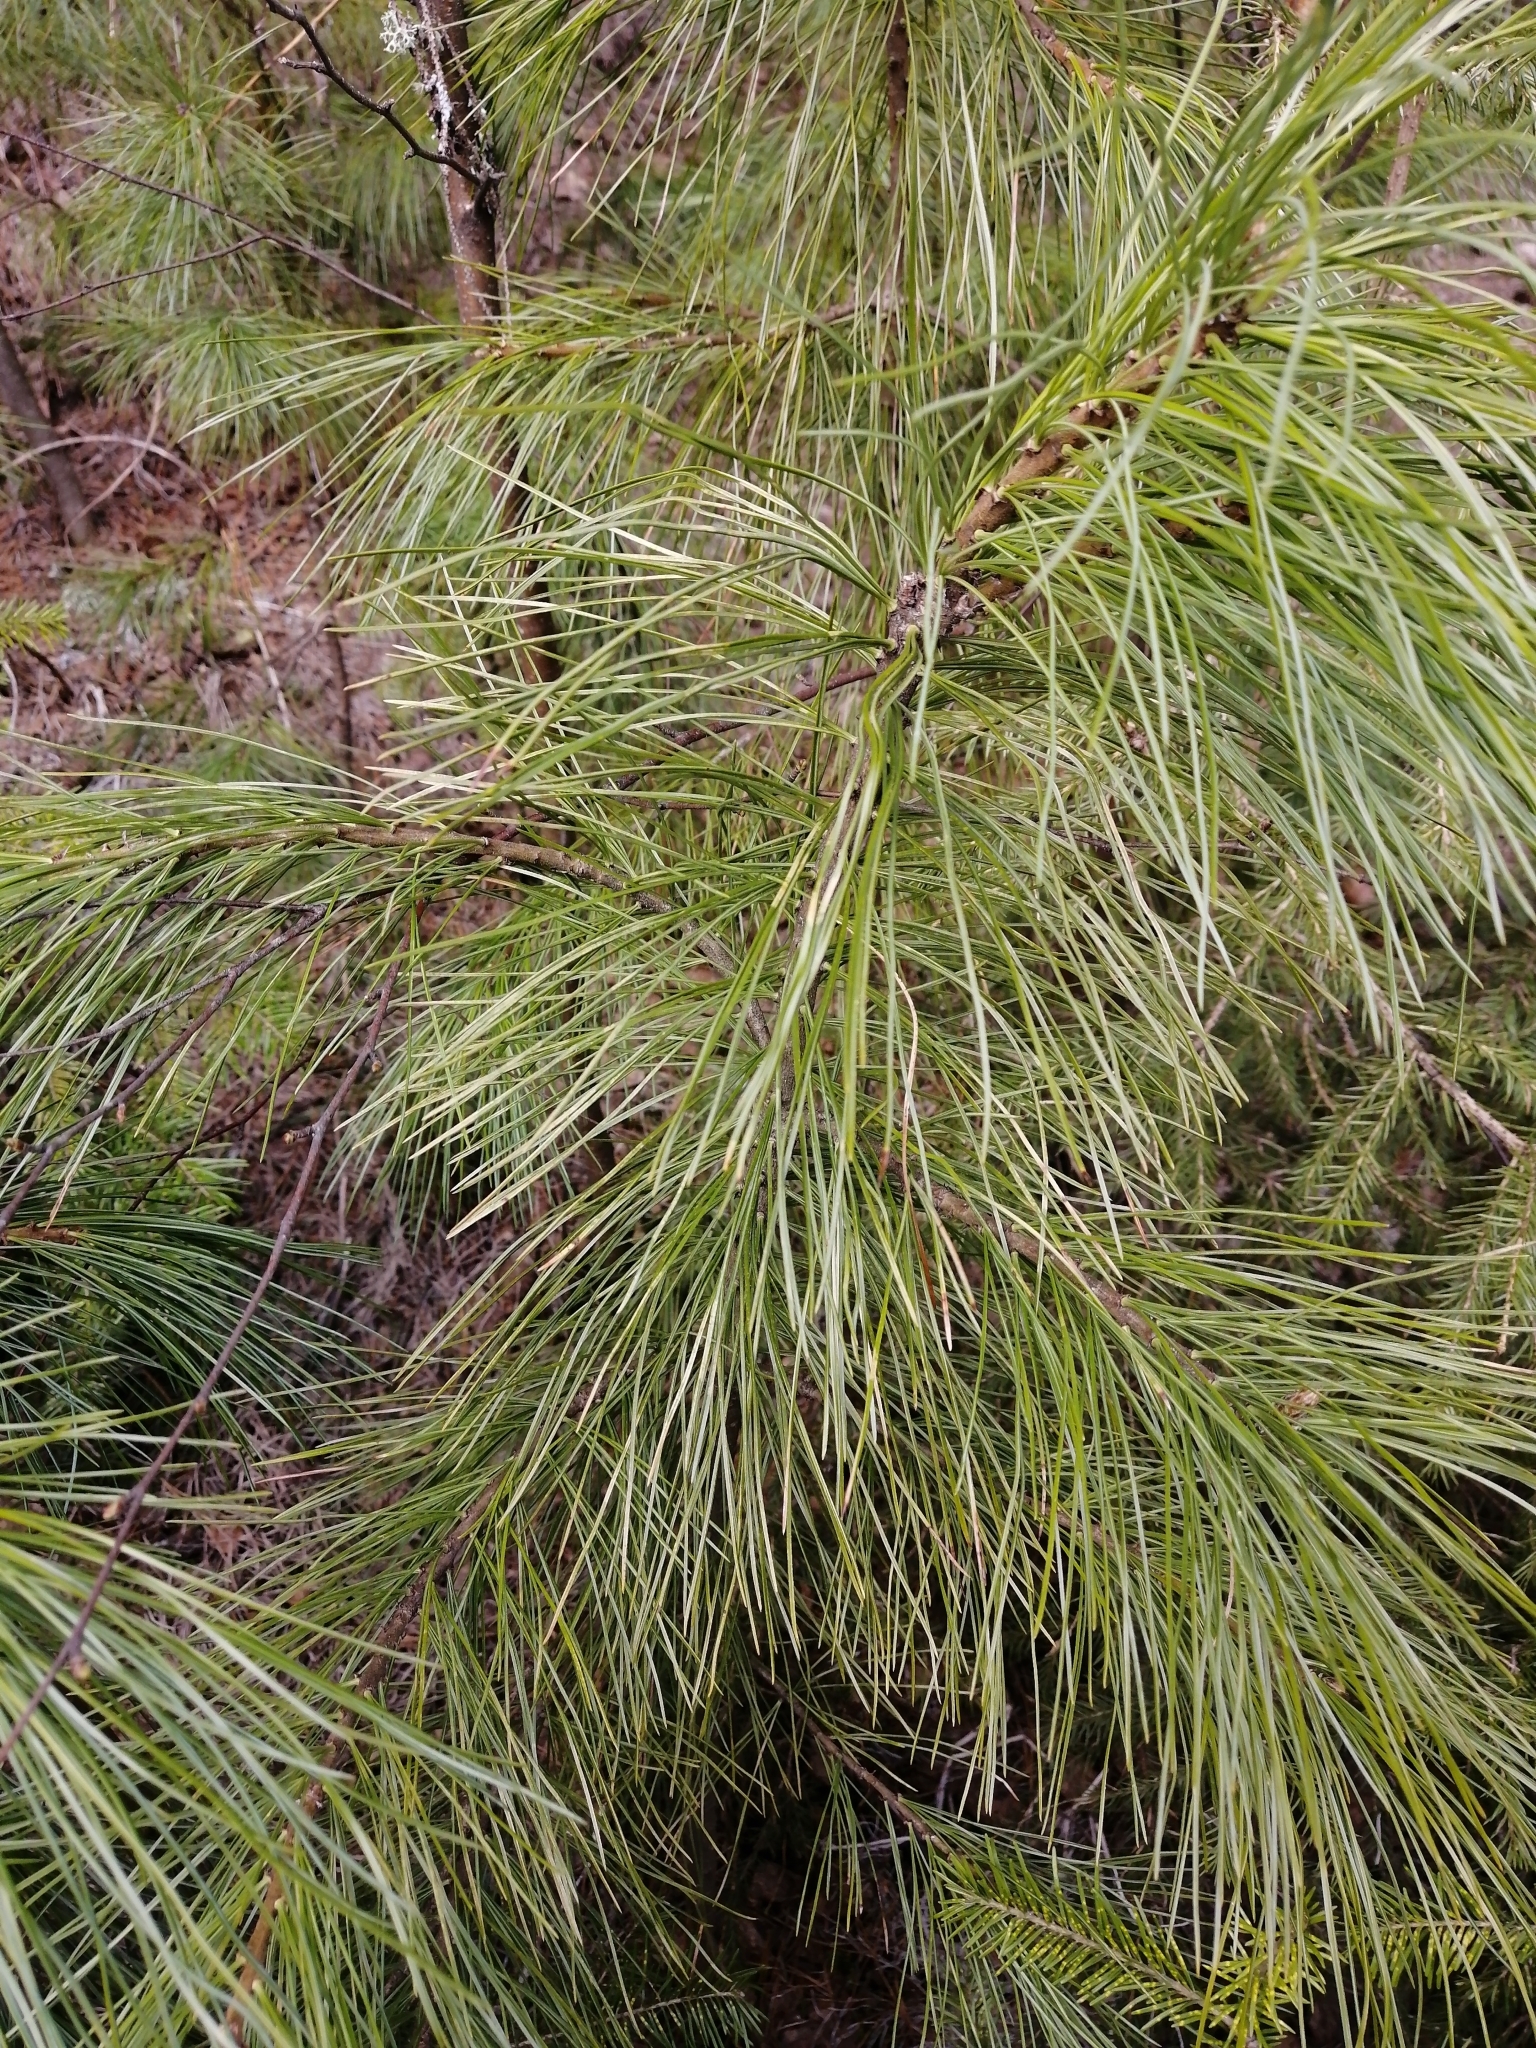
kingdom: Plantae
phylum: Tracheophyta
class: Pinopsida
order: Pinales
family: Pinaceae
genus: Pinus
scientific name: Pinus sibirica
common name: Siberian pine
